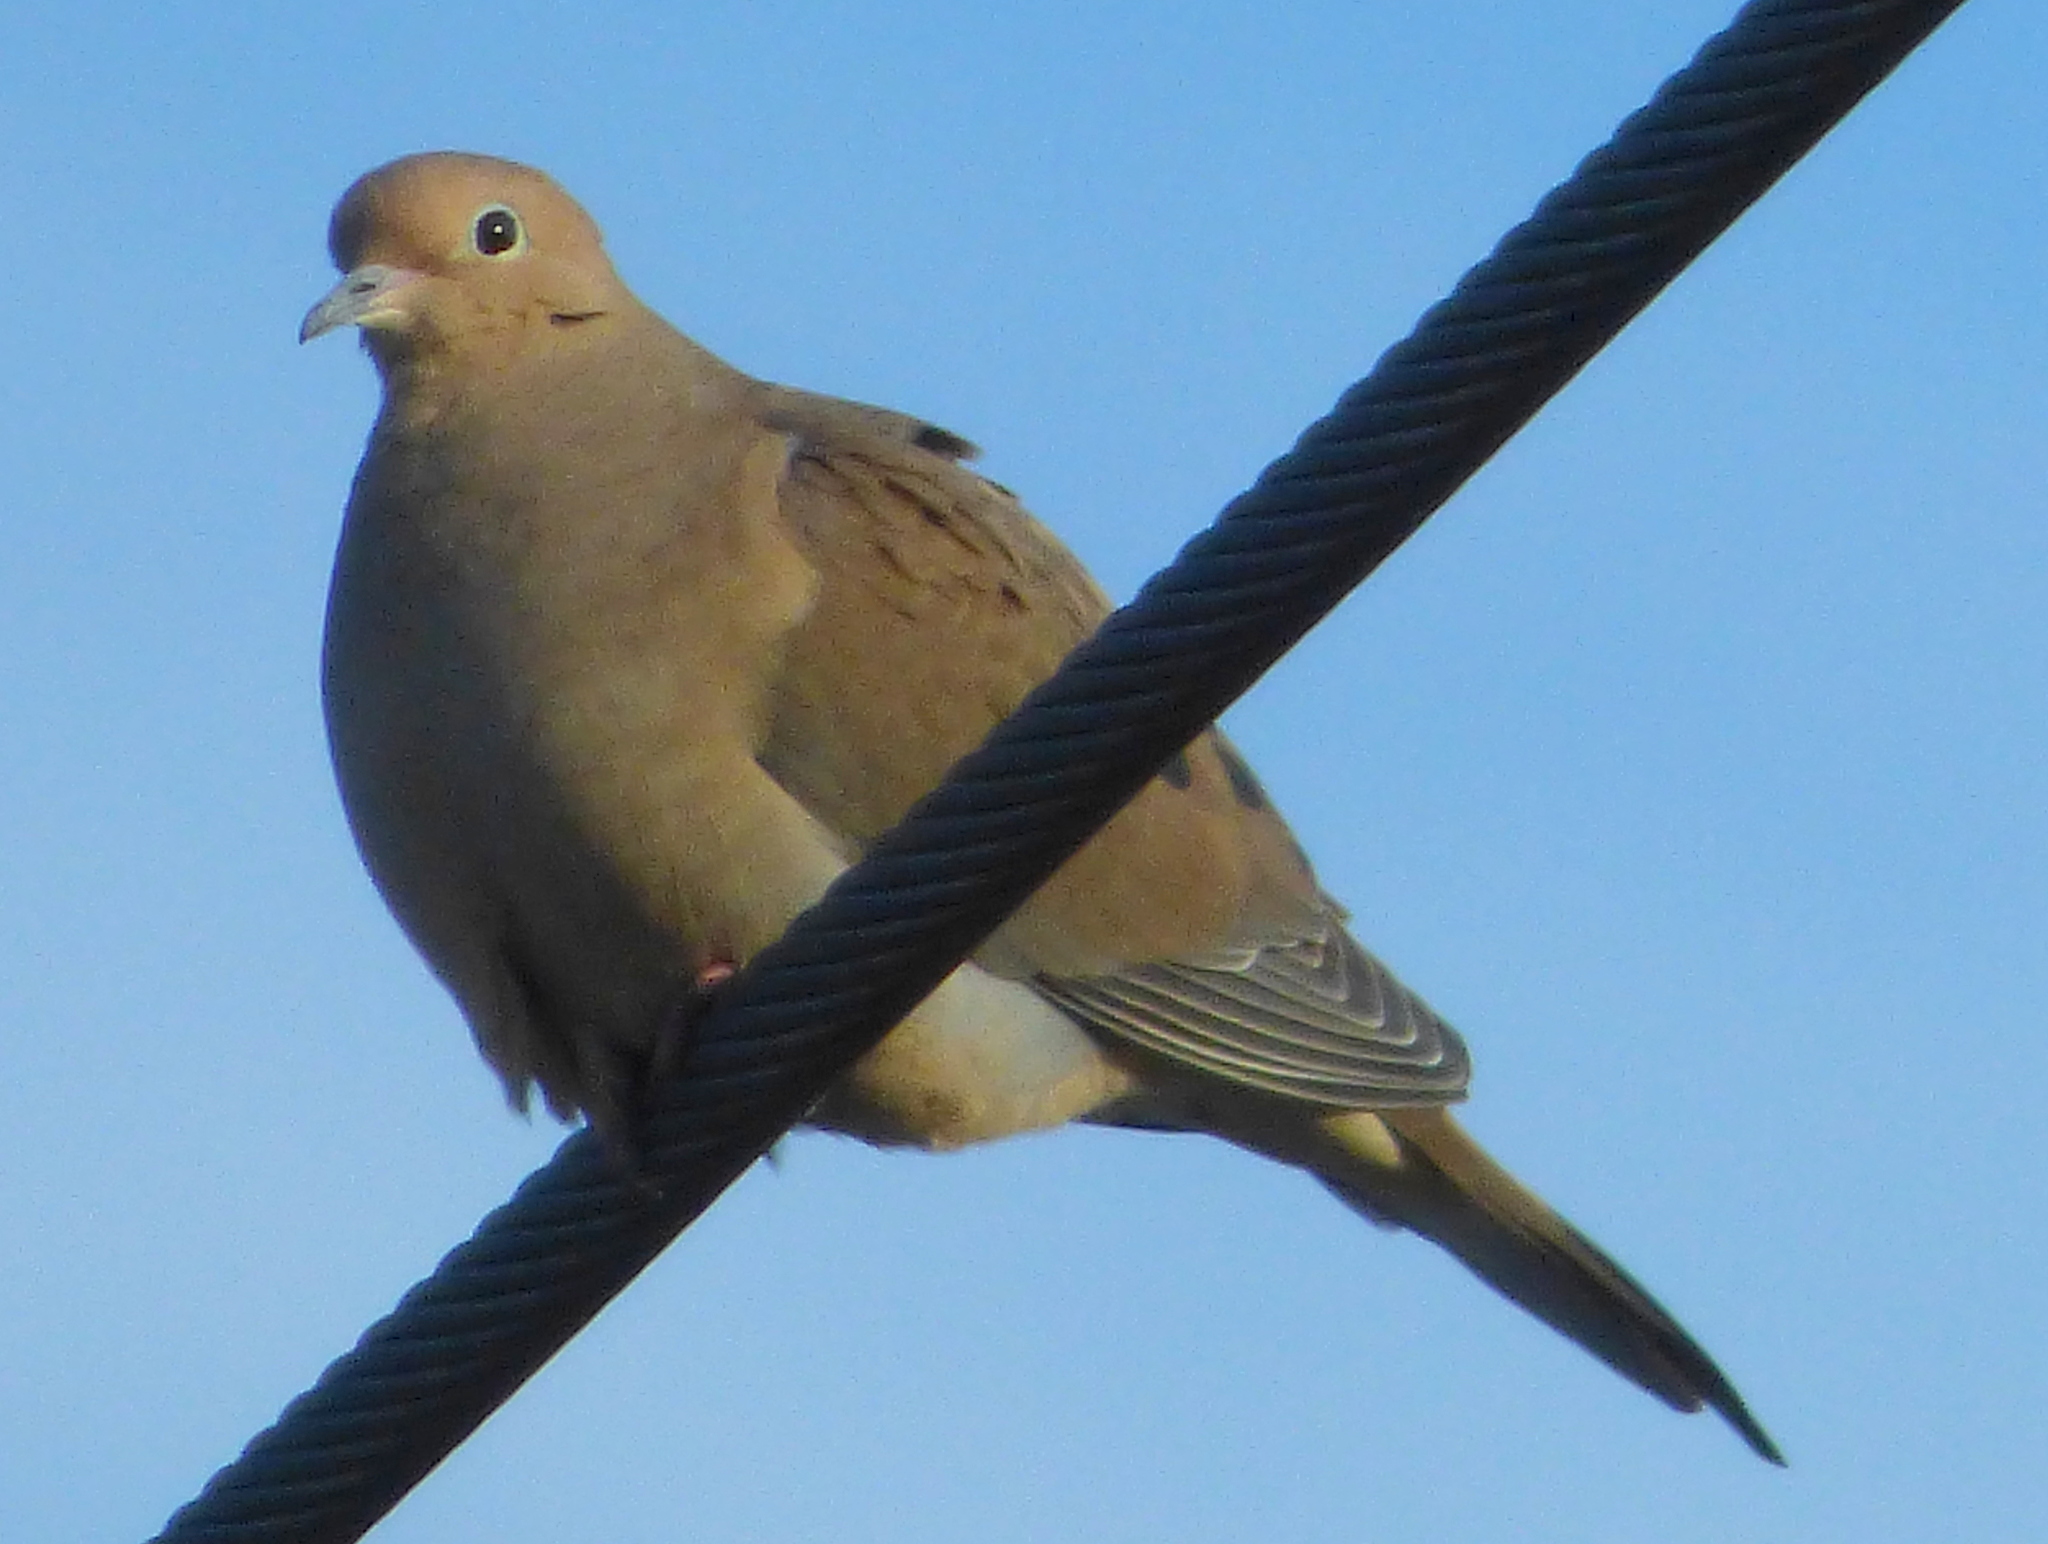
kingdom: Animalia
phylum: Chordata
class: Aves
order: Columbiformes
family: Columbidae
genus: Zenaida
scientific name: Zenaida macroura
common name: Mourning dove
